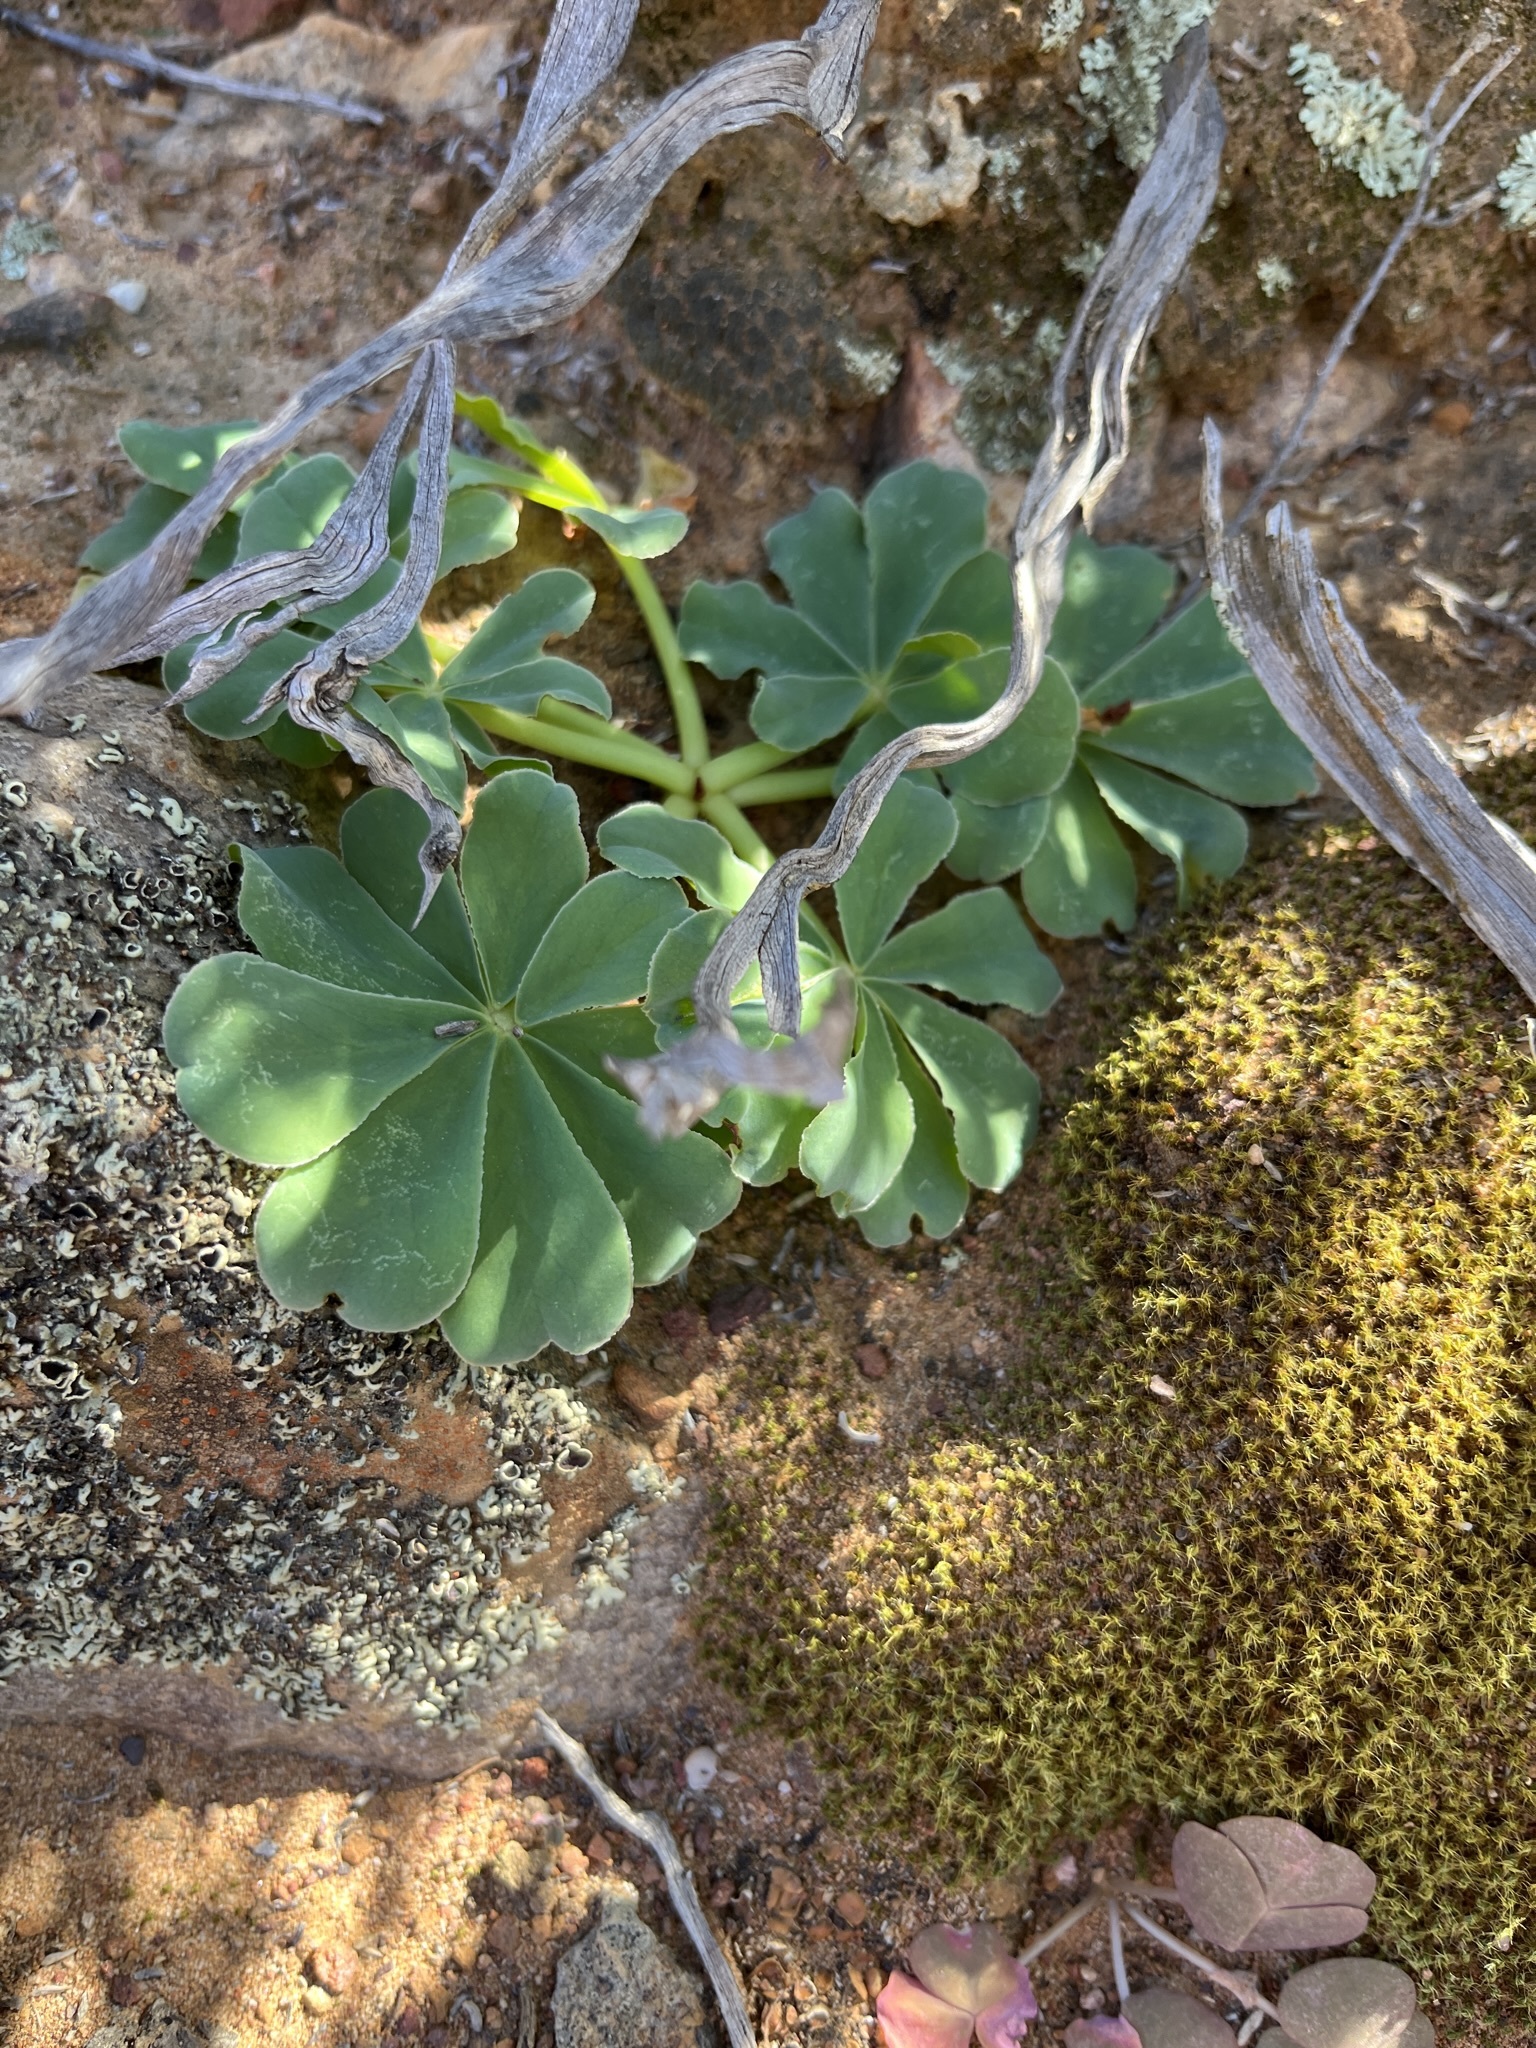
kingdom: Plantae
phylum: Tracheophyta
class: Magnoliopsida
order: Oxalidales
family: Oxalidaceae
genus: Oxalis
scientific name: Oxalis flava
